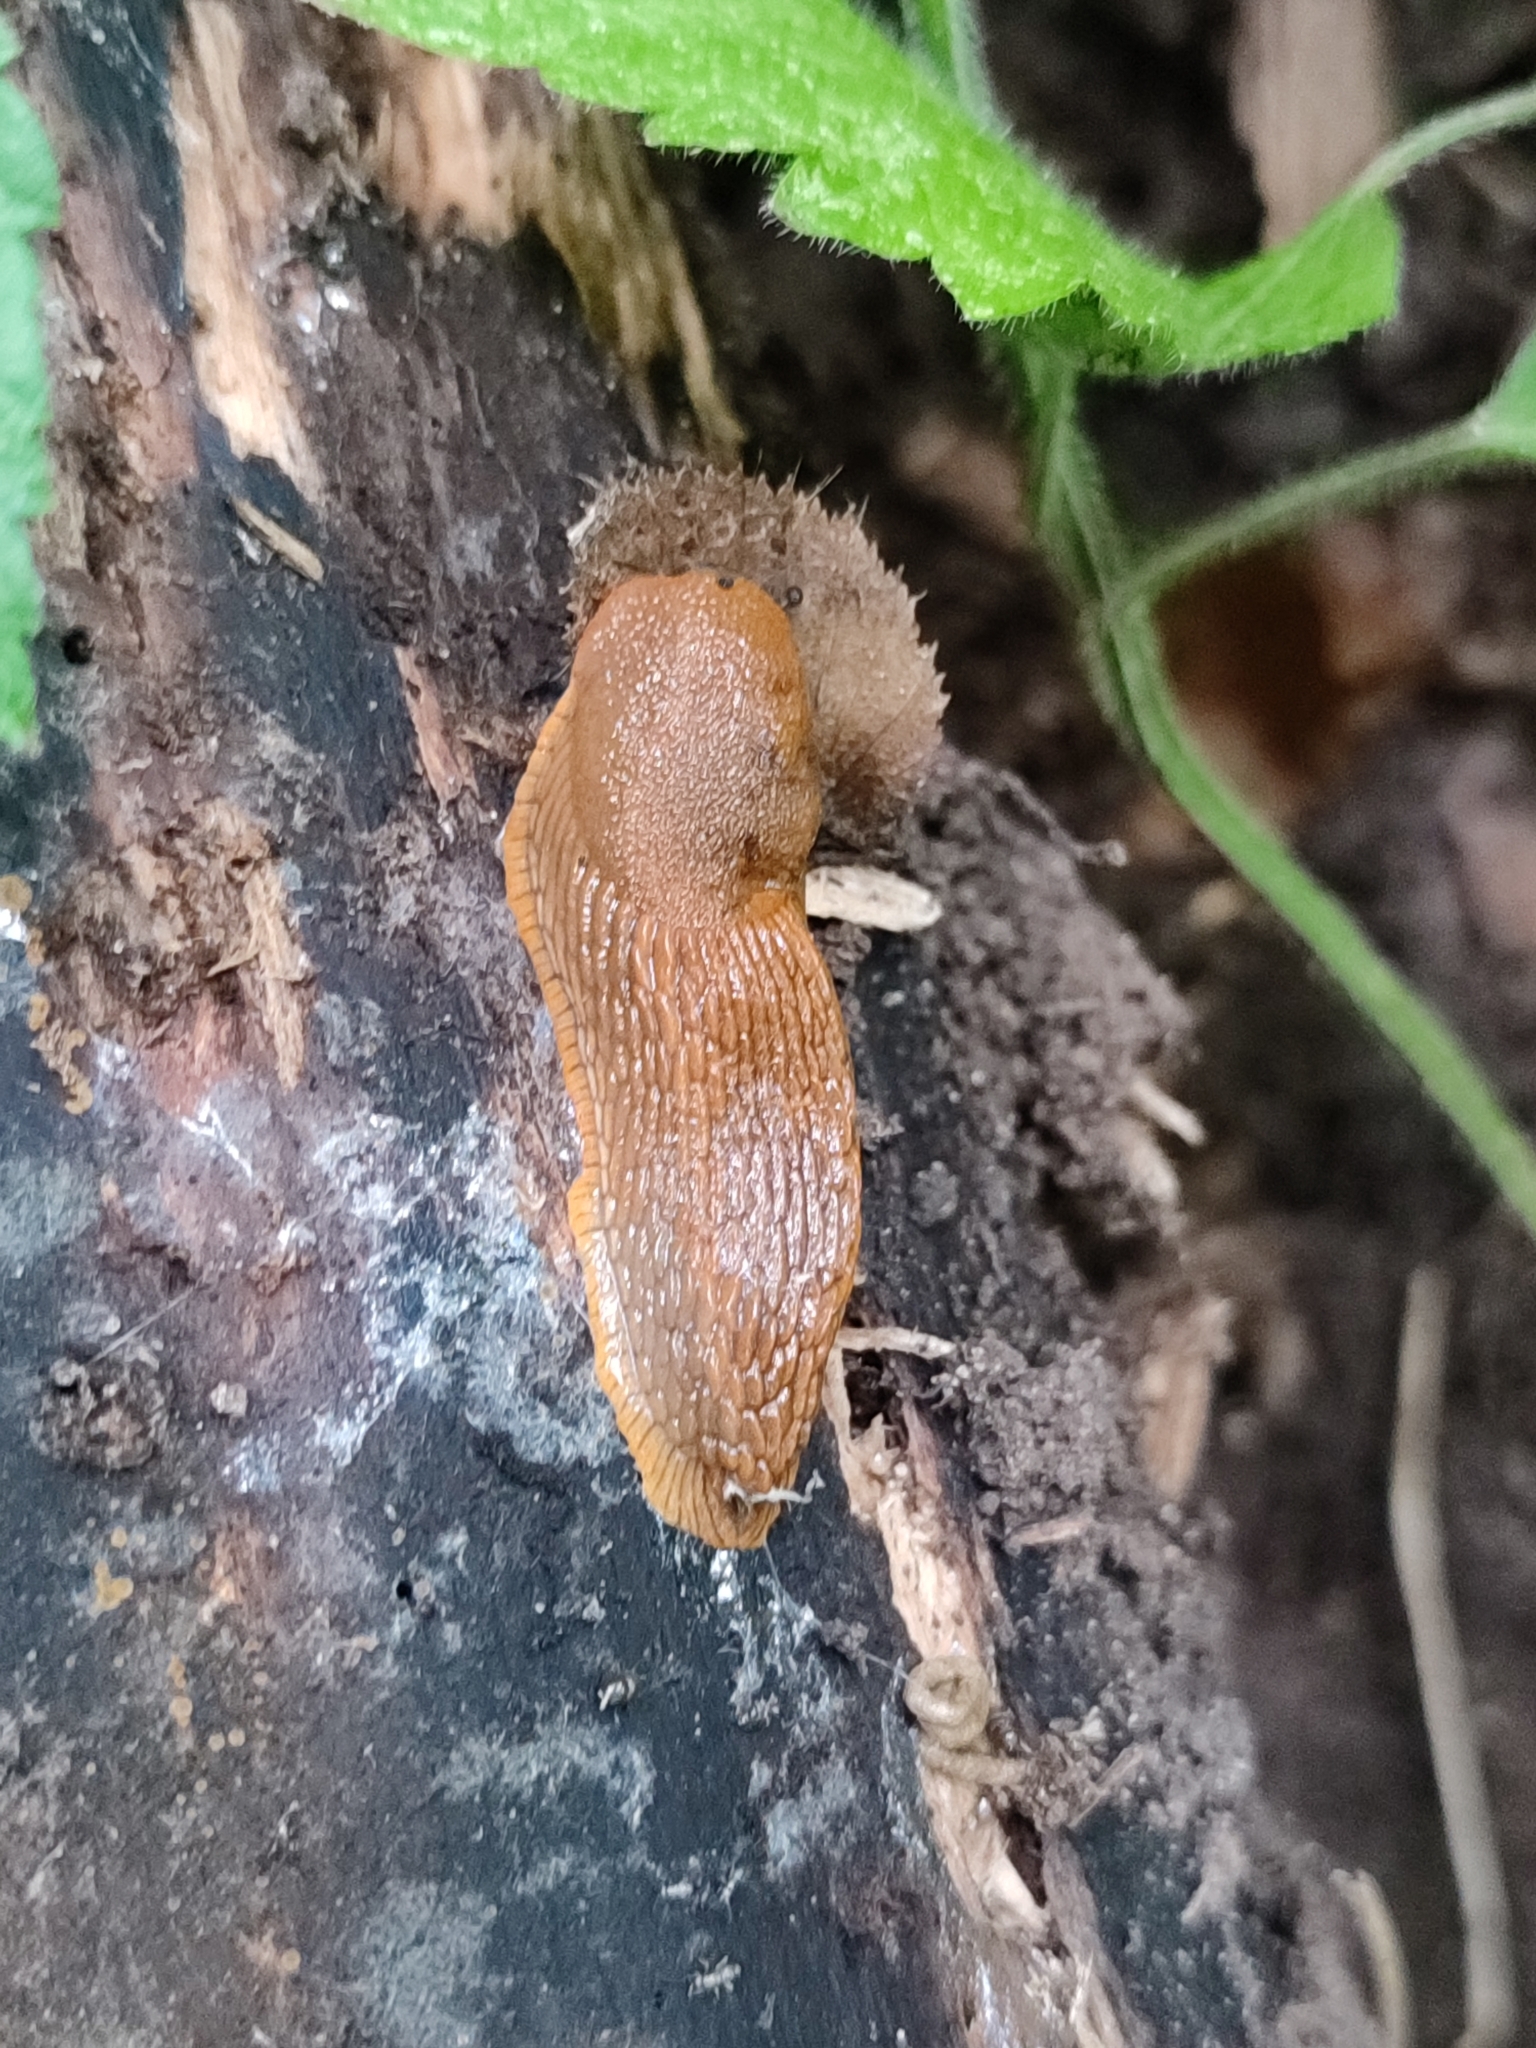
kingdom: Animalia
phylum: Mollusca
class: Gastropoda
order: Stylommatophora
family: Arionidae
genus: Arion
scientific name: Arion vulgaris
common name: Lusitanian slug
